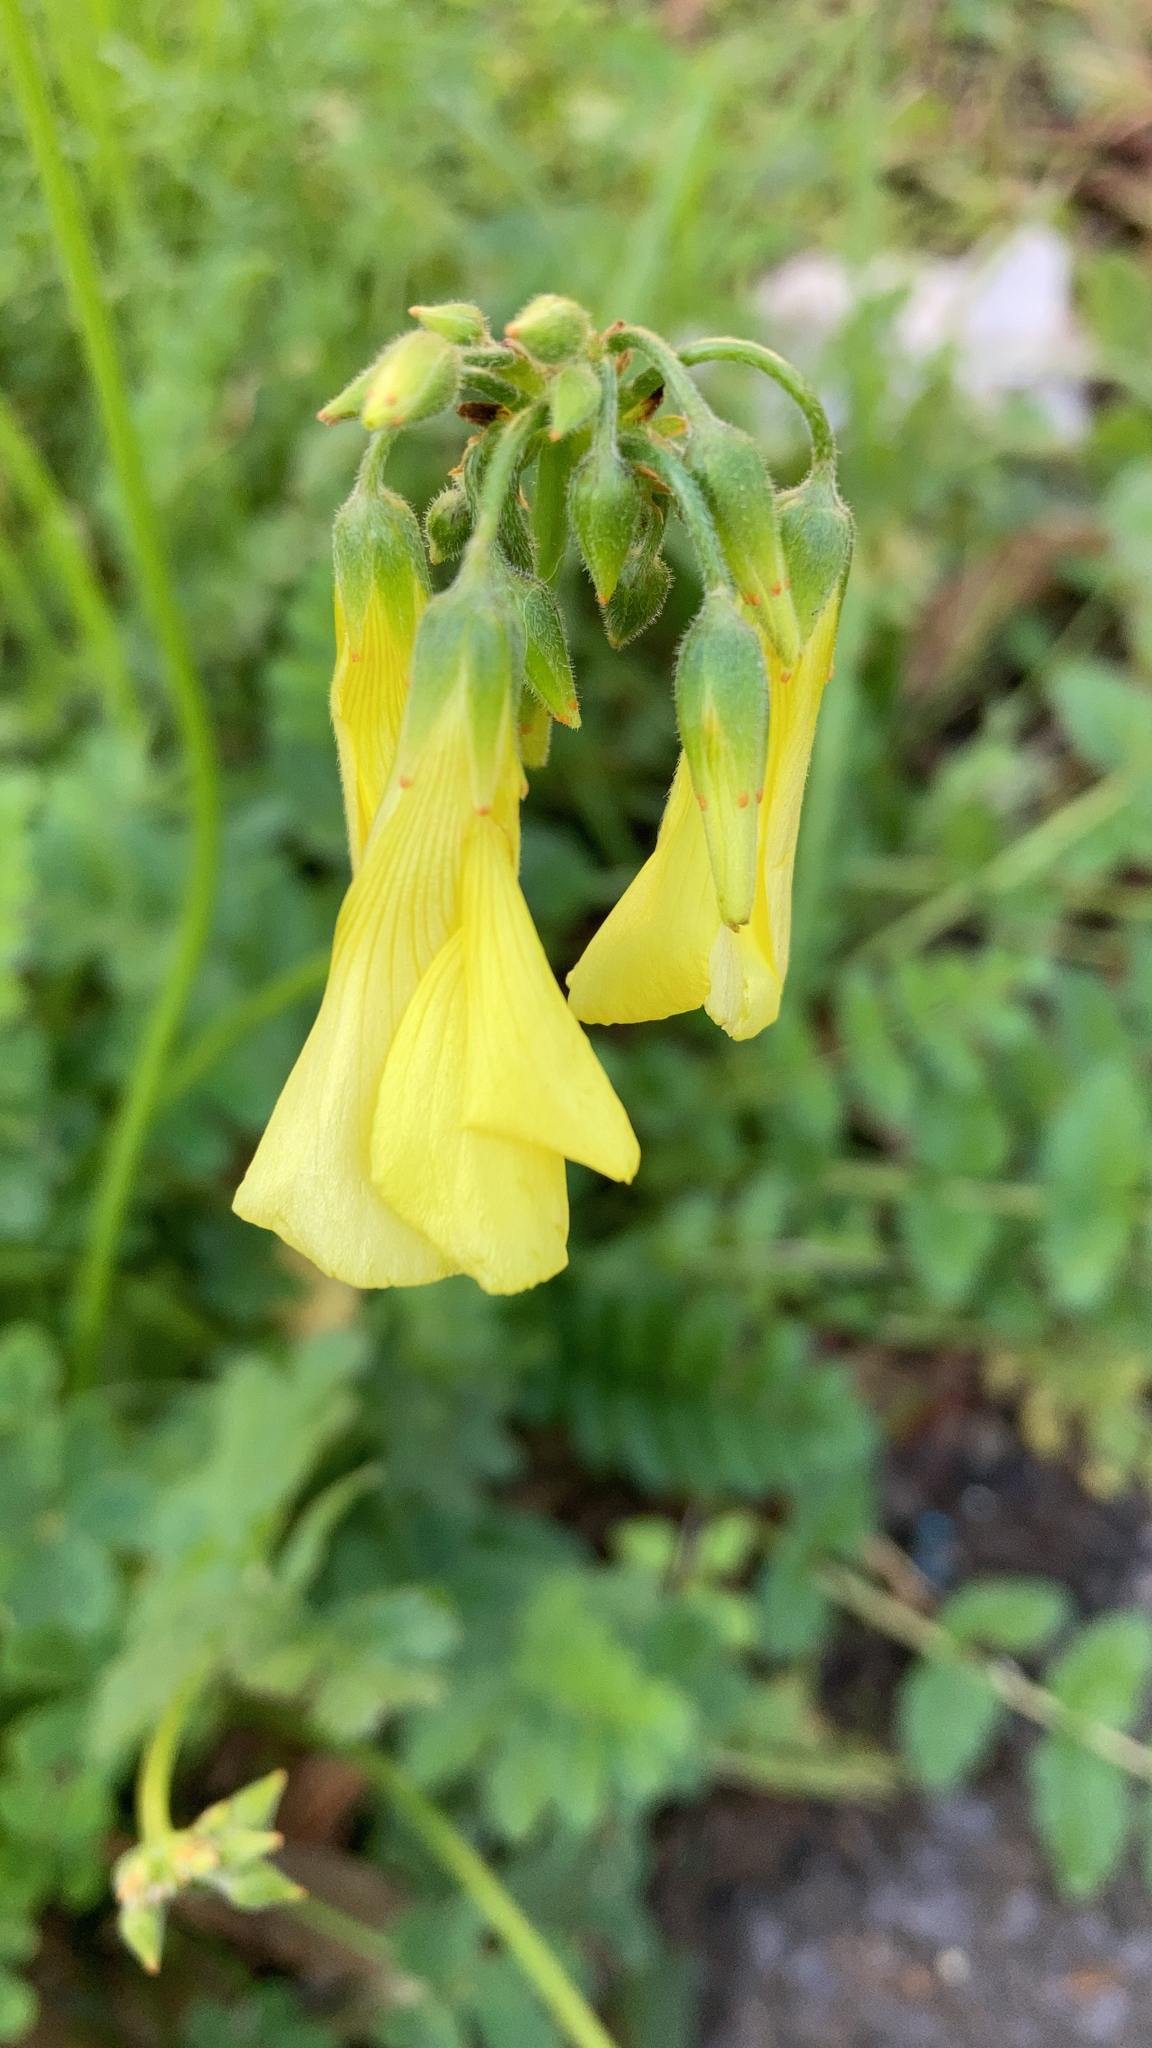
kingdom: Plantae
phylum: Tracheophyta
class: Magnoliopsida
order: Oxalidales
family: Oxalidaceae
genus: Oxalis
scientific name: Oxalis pes-caprae
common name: Bermuda-buttercup
